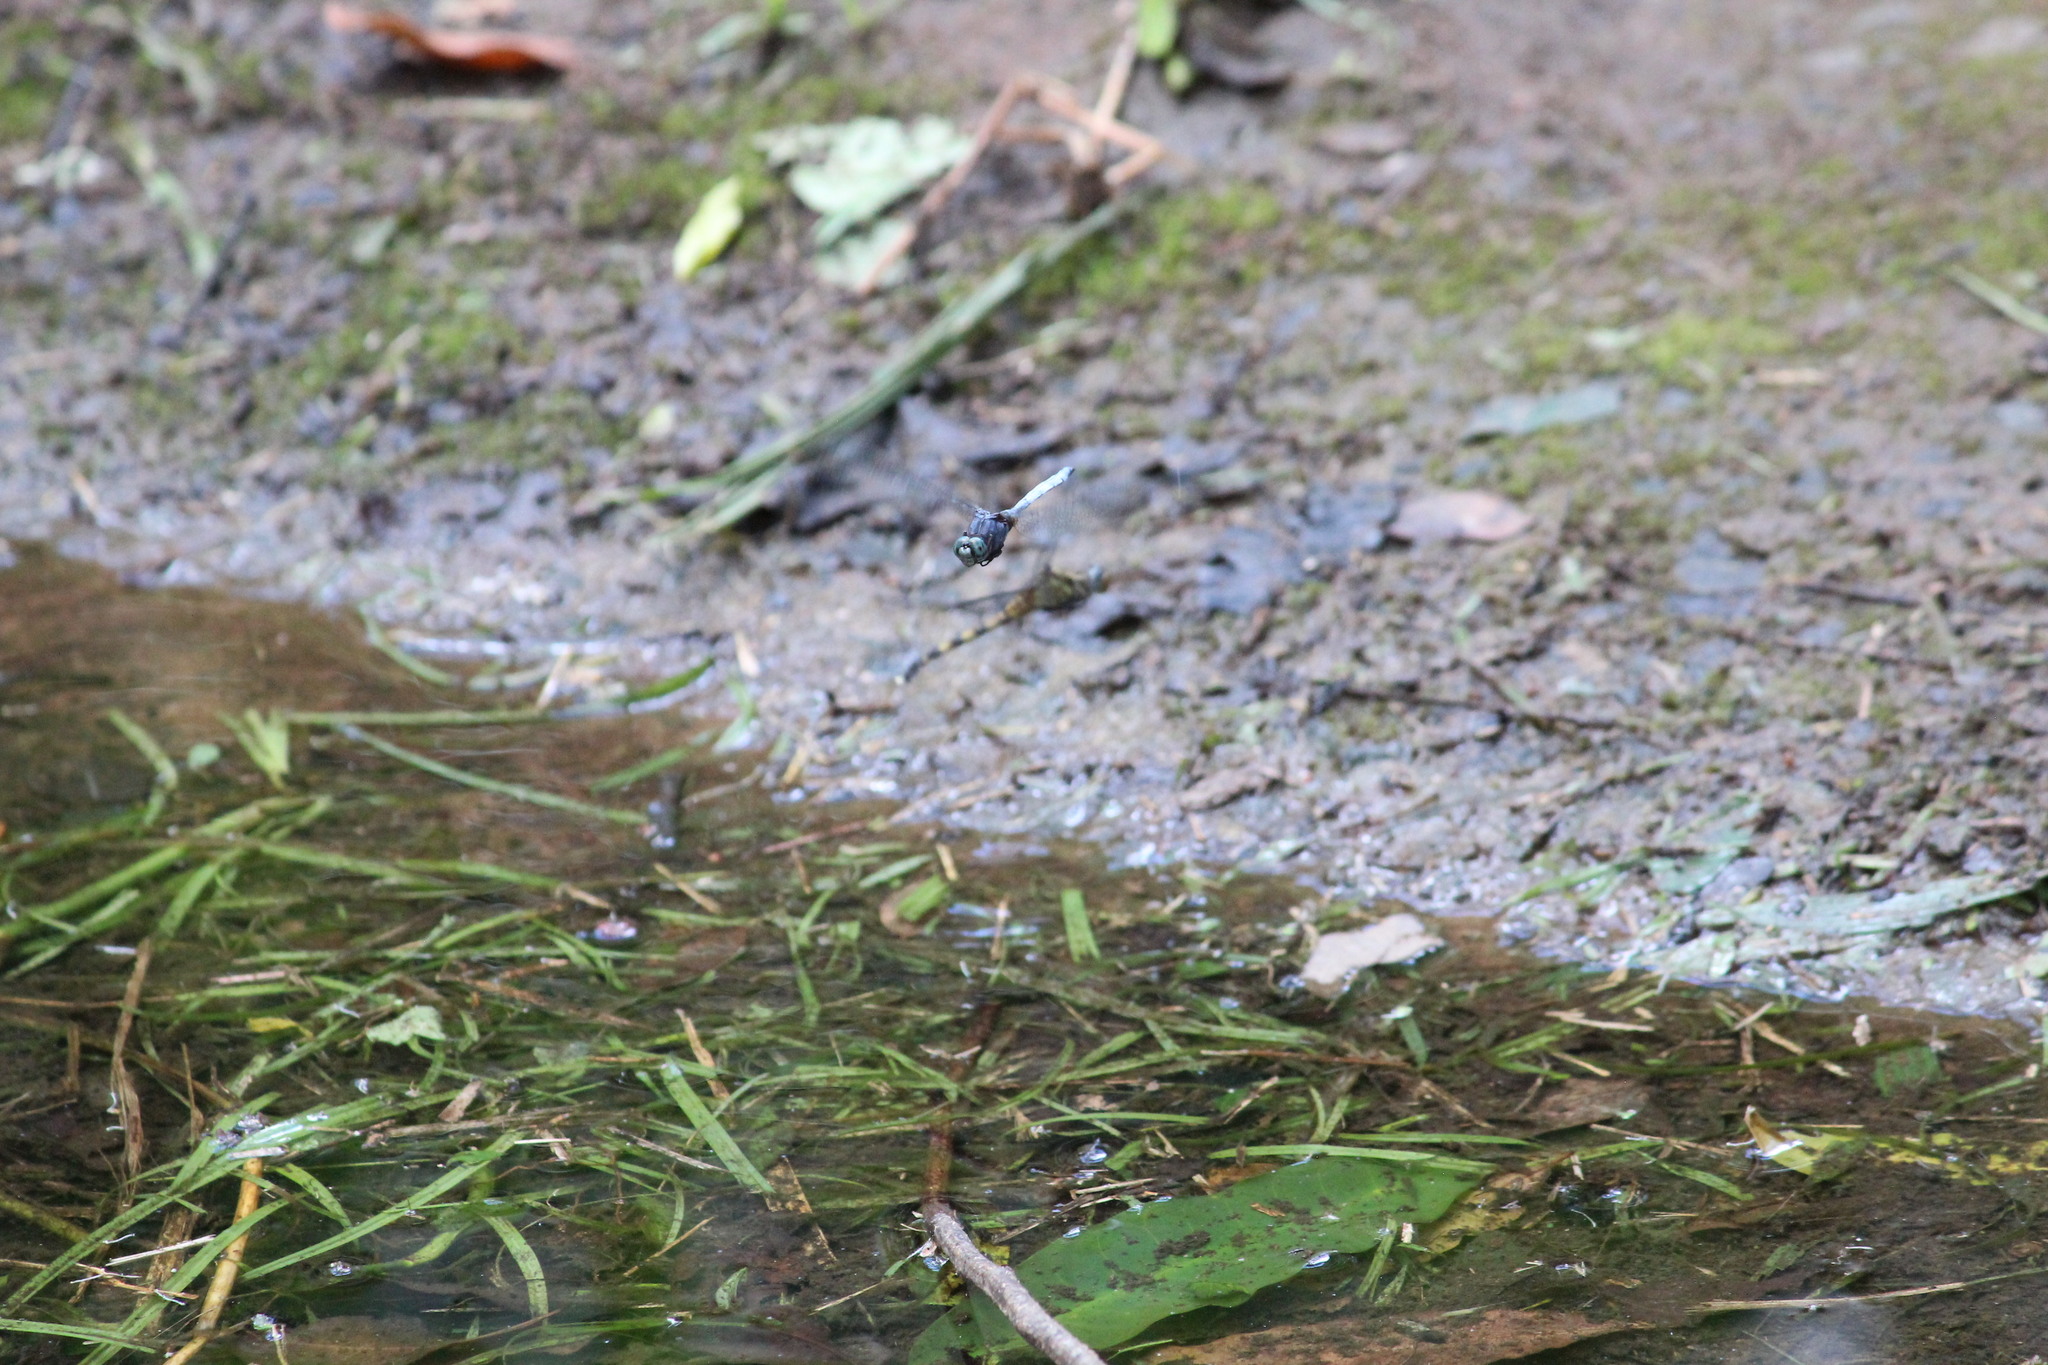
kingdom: Animalia
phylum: Arthropoda
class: Insecta
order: Odonata
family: Libellulidae
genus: Orthetrum
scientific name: Orthetrum julia
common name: Julia skimmer
